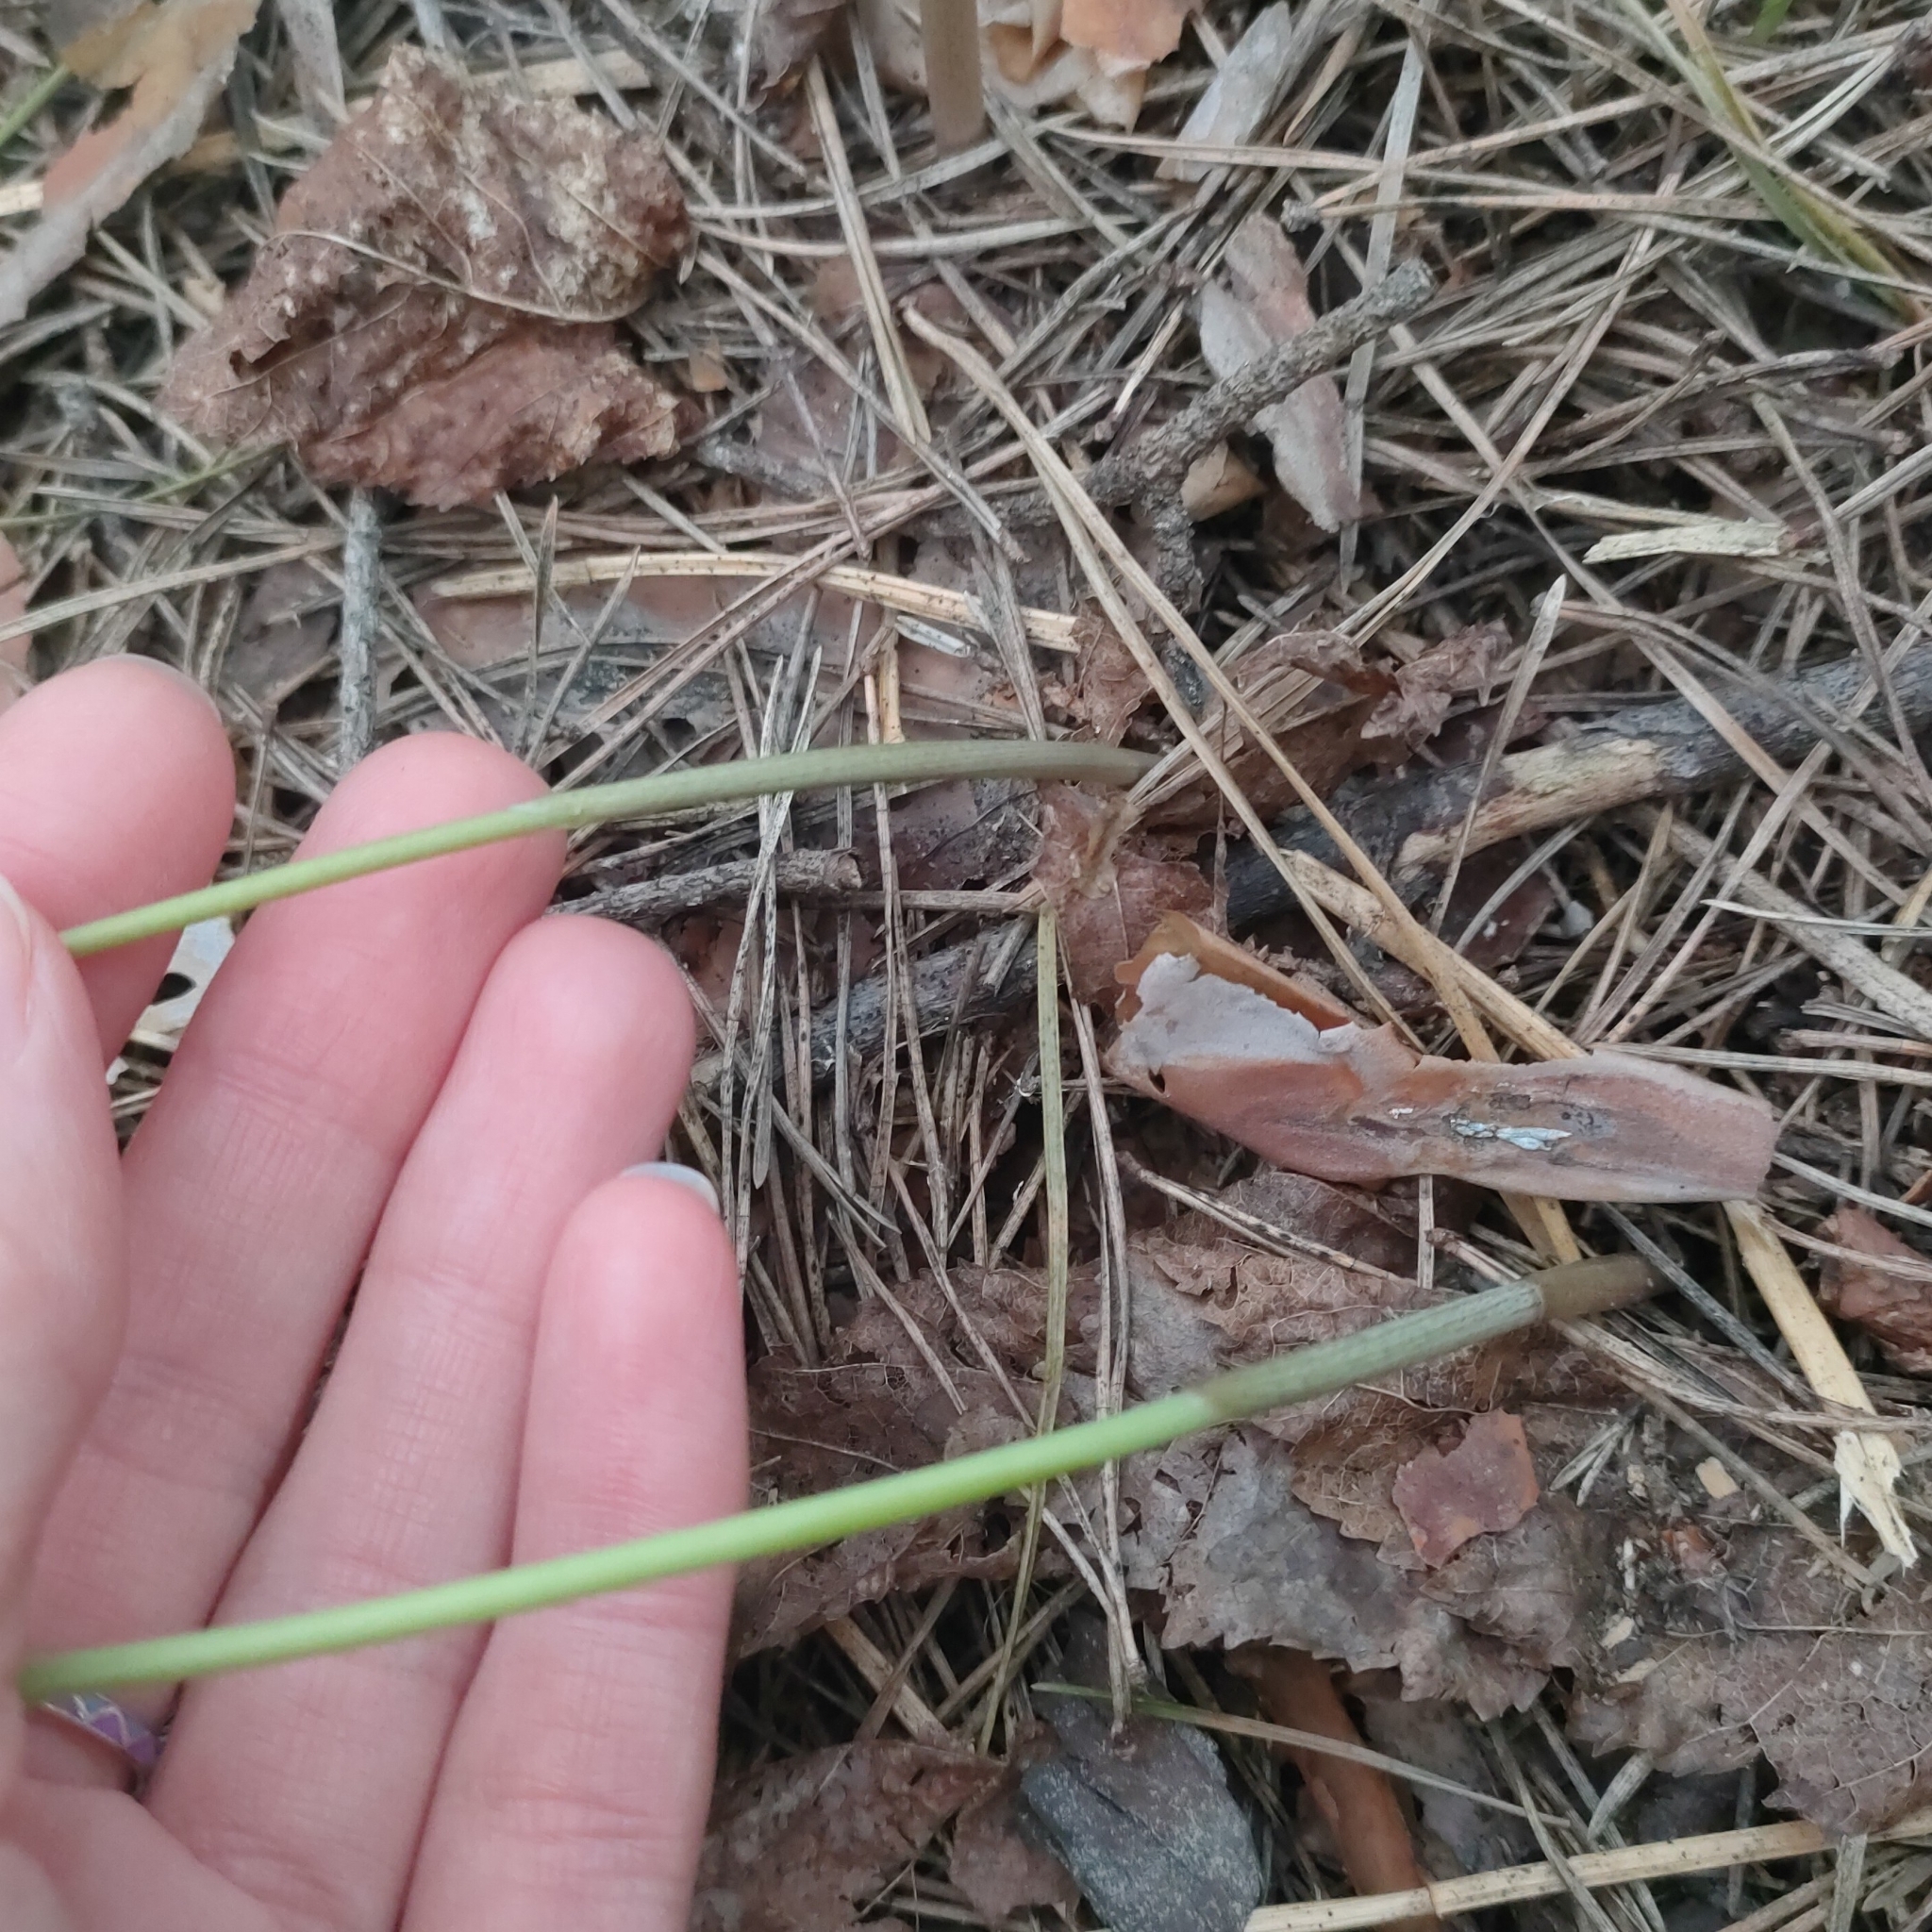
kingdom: Plantae
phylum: Tracheophyta
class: Liliopsida
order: Asparagales
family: Asparagaceae
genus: Polygonatum
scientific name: Polygonatum multiflorum
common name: Solomon's-seal
